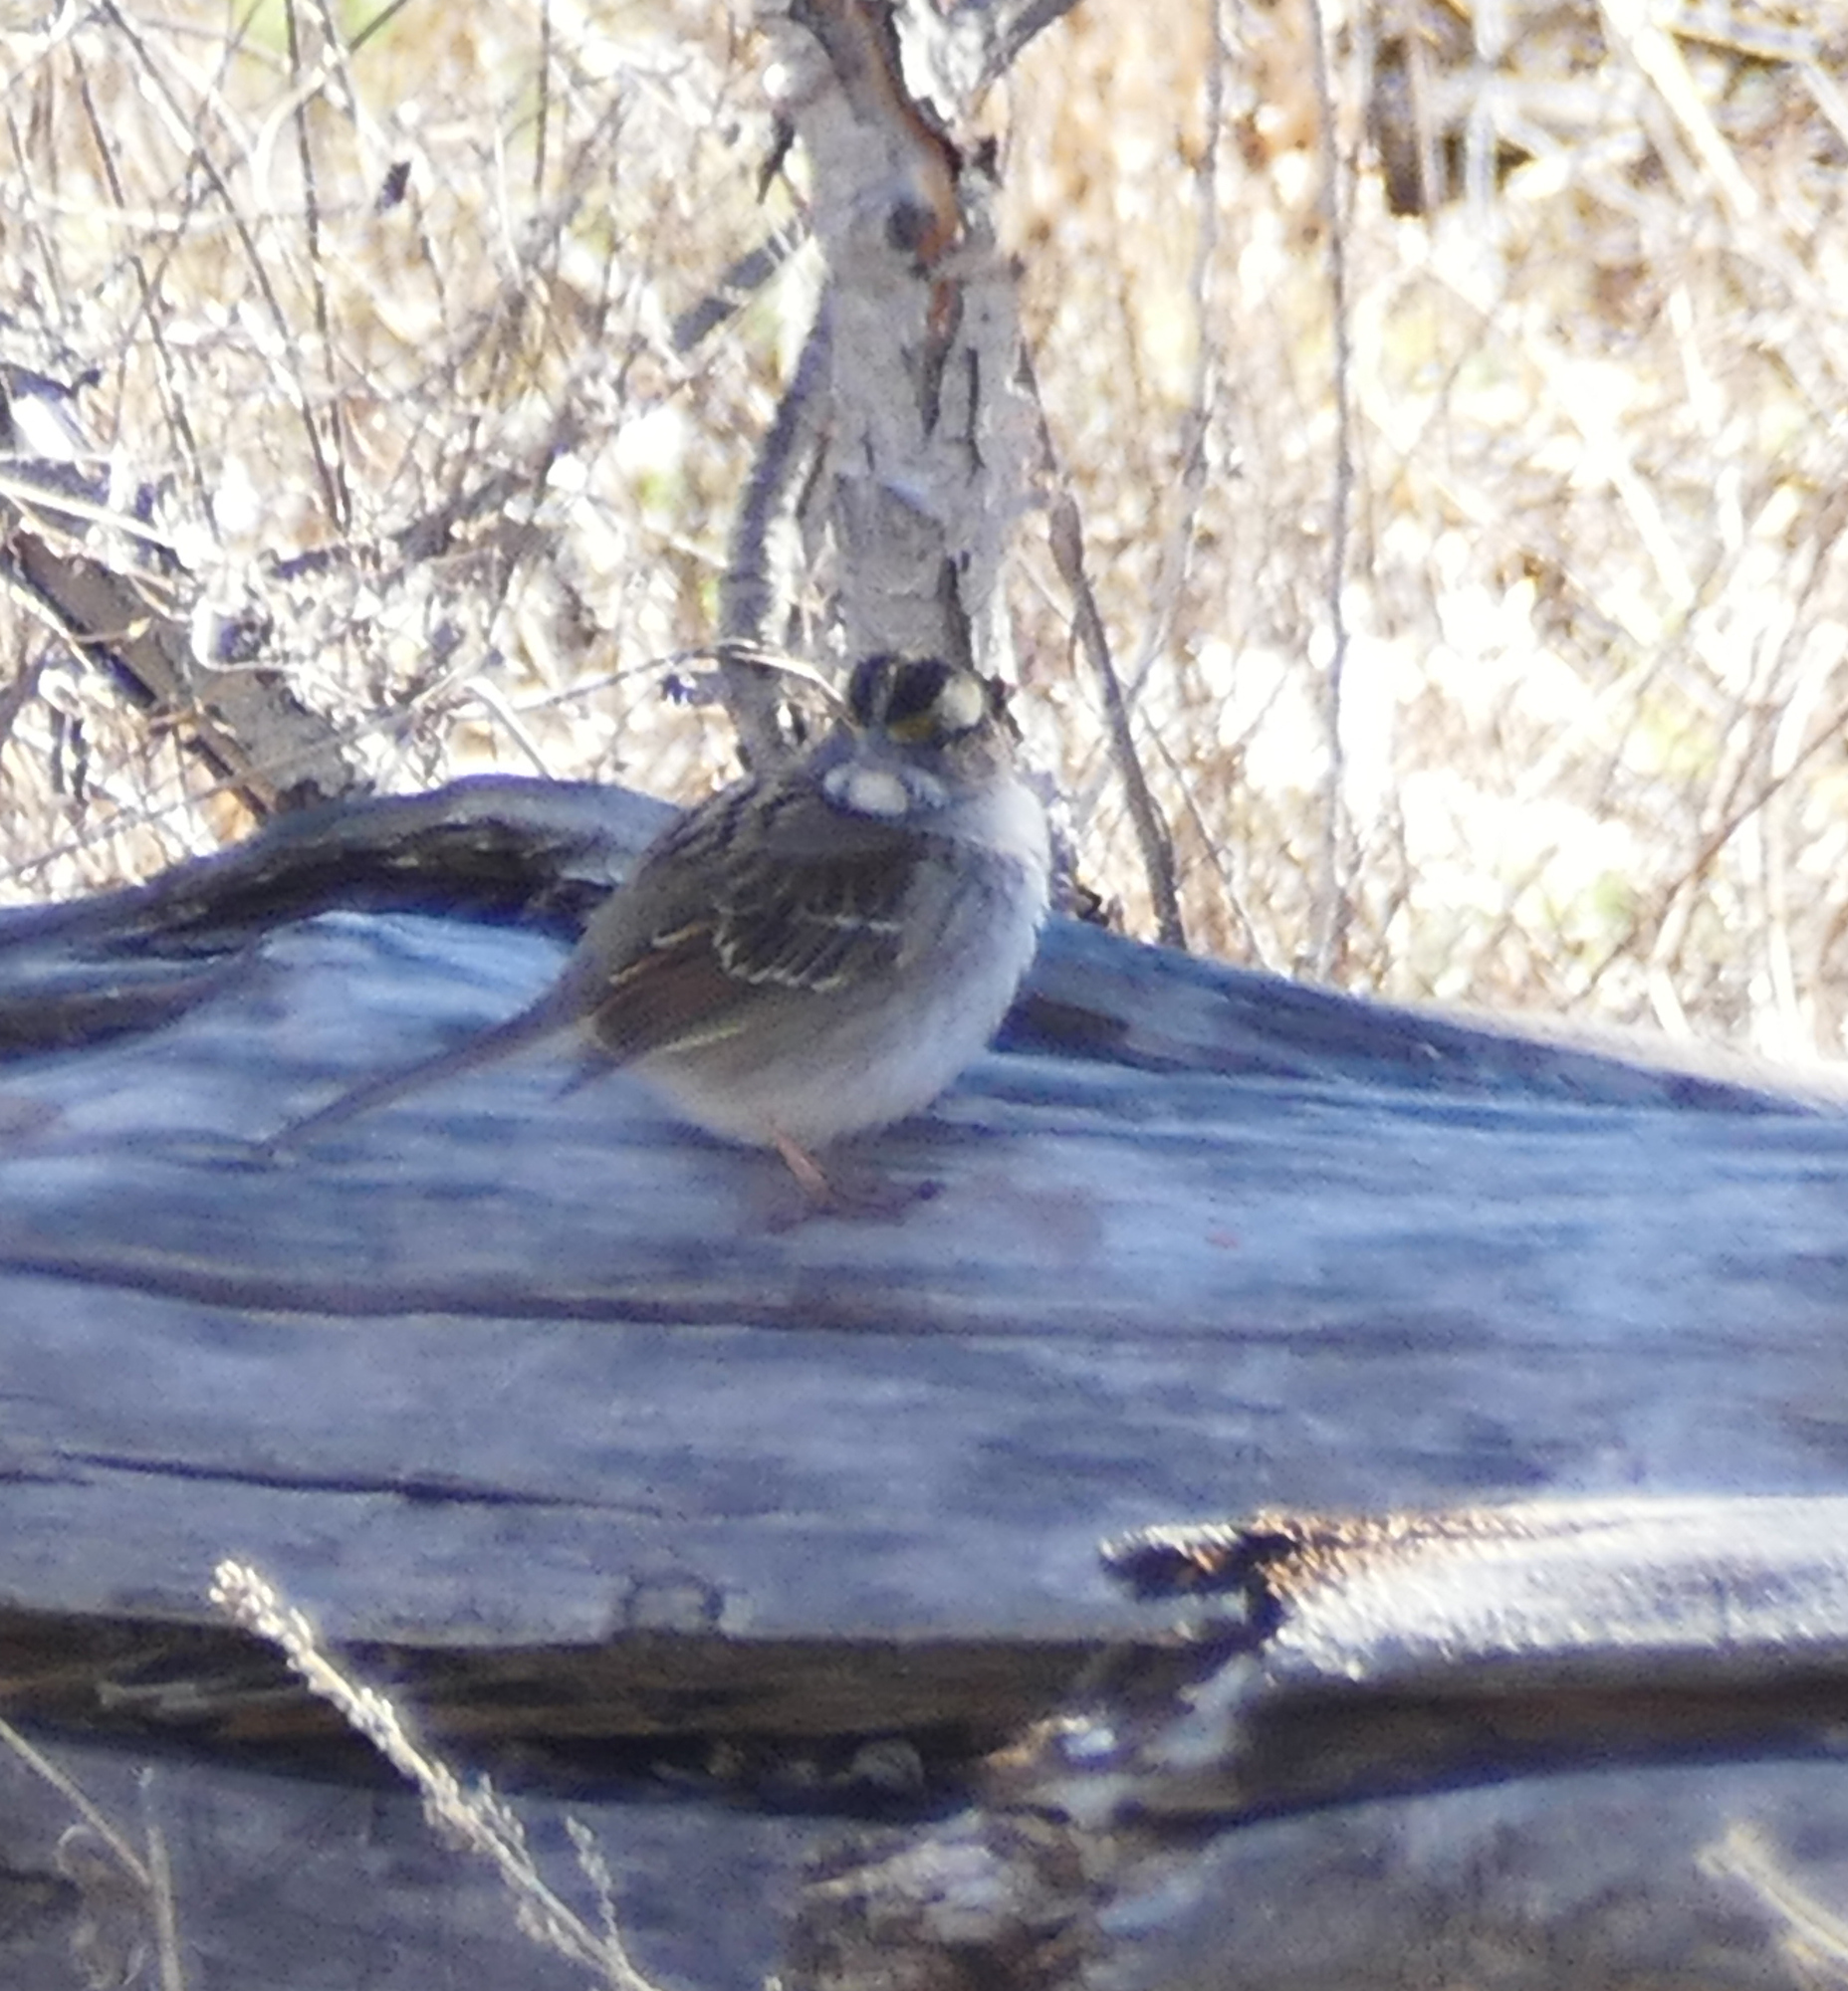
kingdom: Animalia
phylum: Chordata
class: Aves
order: Passeriformes
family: Passerellidae
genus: Zonotrichia
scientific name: Zonotrichia albicollis
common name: White-throated sparrow
